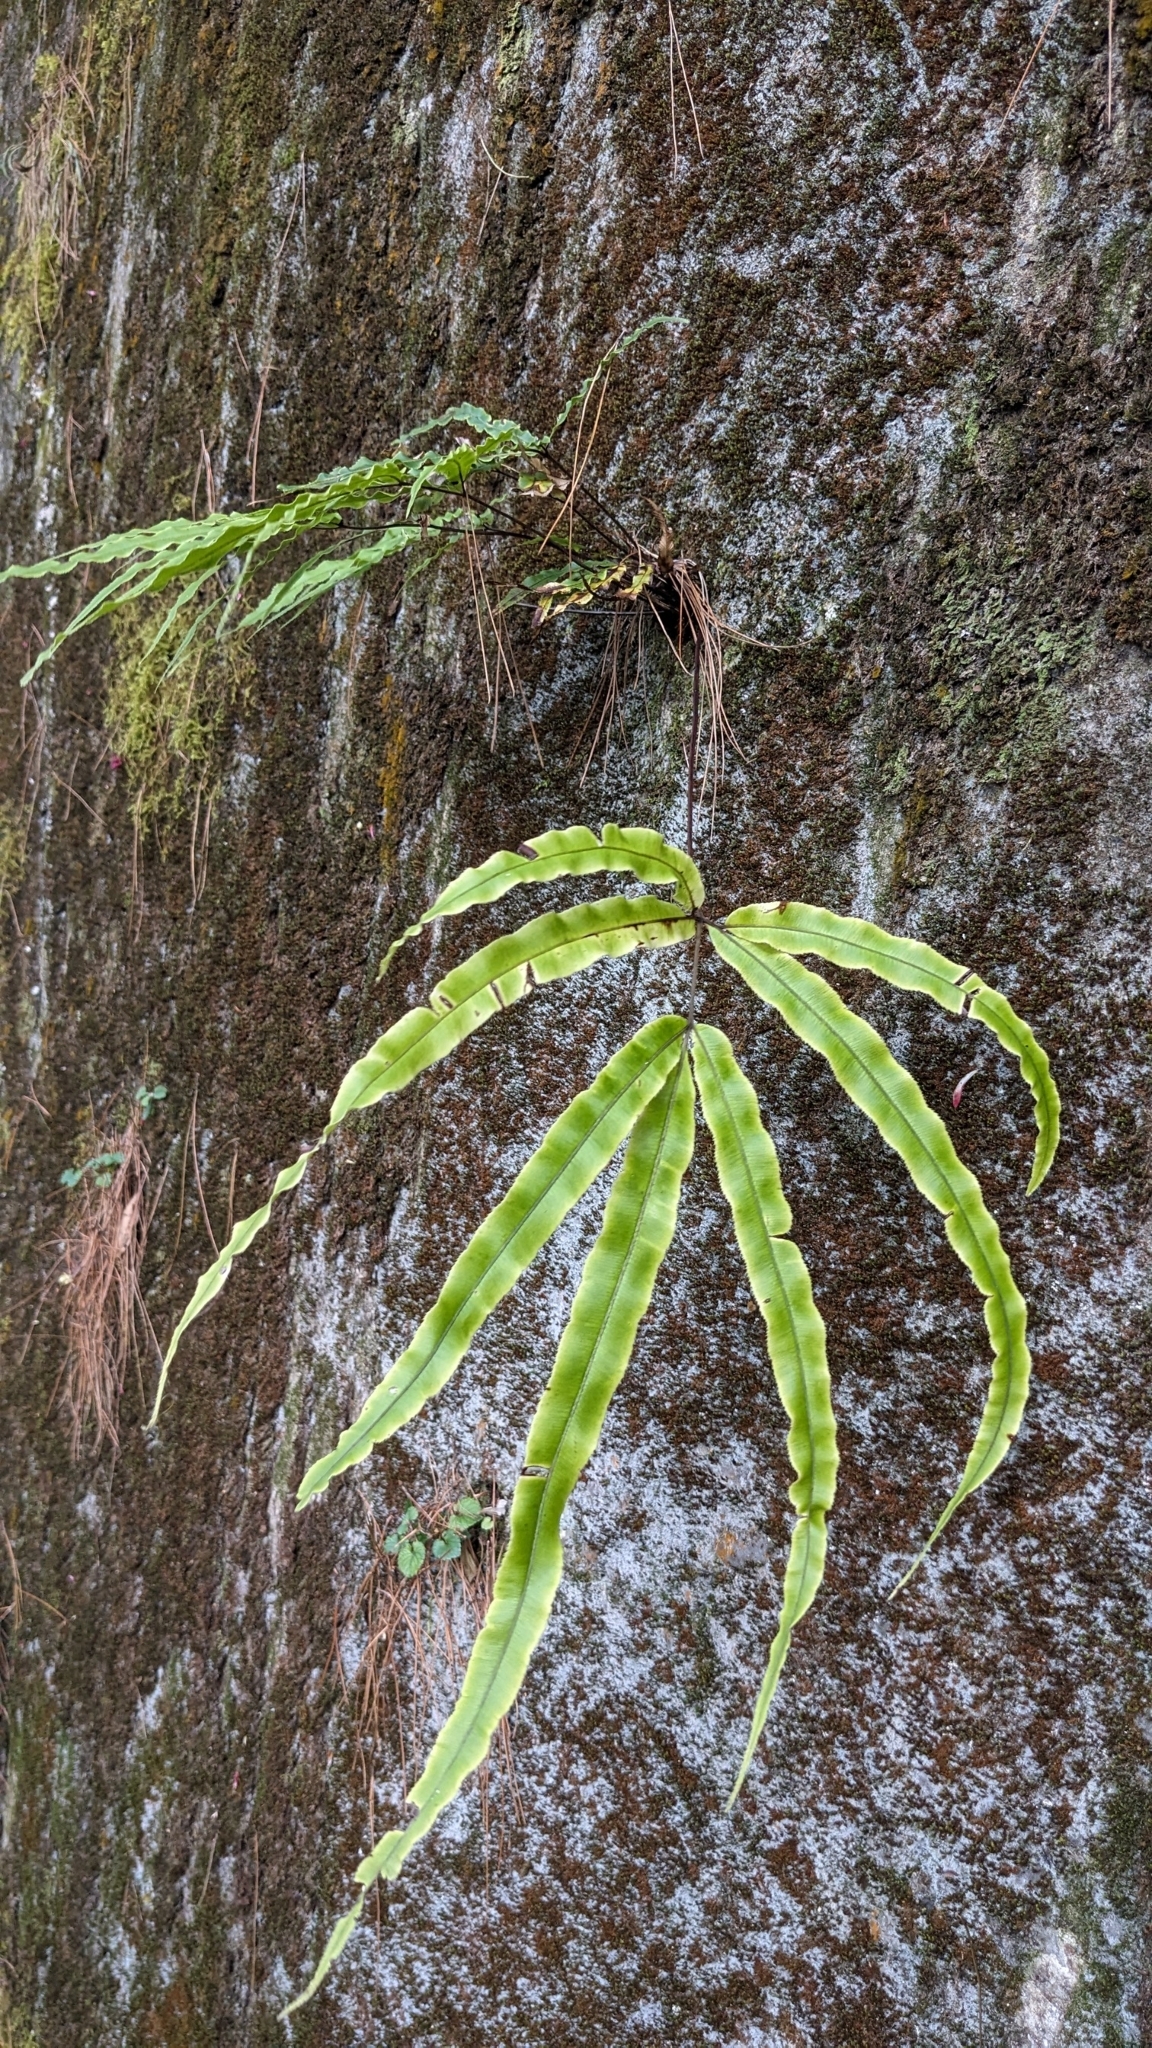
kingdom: Plantae
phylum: Tracheophyta
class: Polypodiopsida
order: Polypodiales
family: Pteridaceae
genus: Pteris
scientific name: Pteris cretica
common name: Ribbon fern
